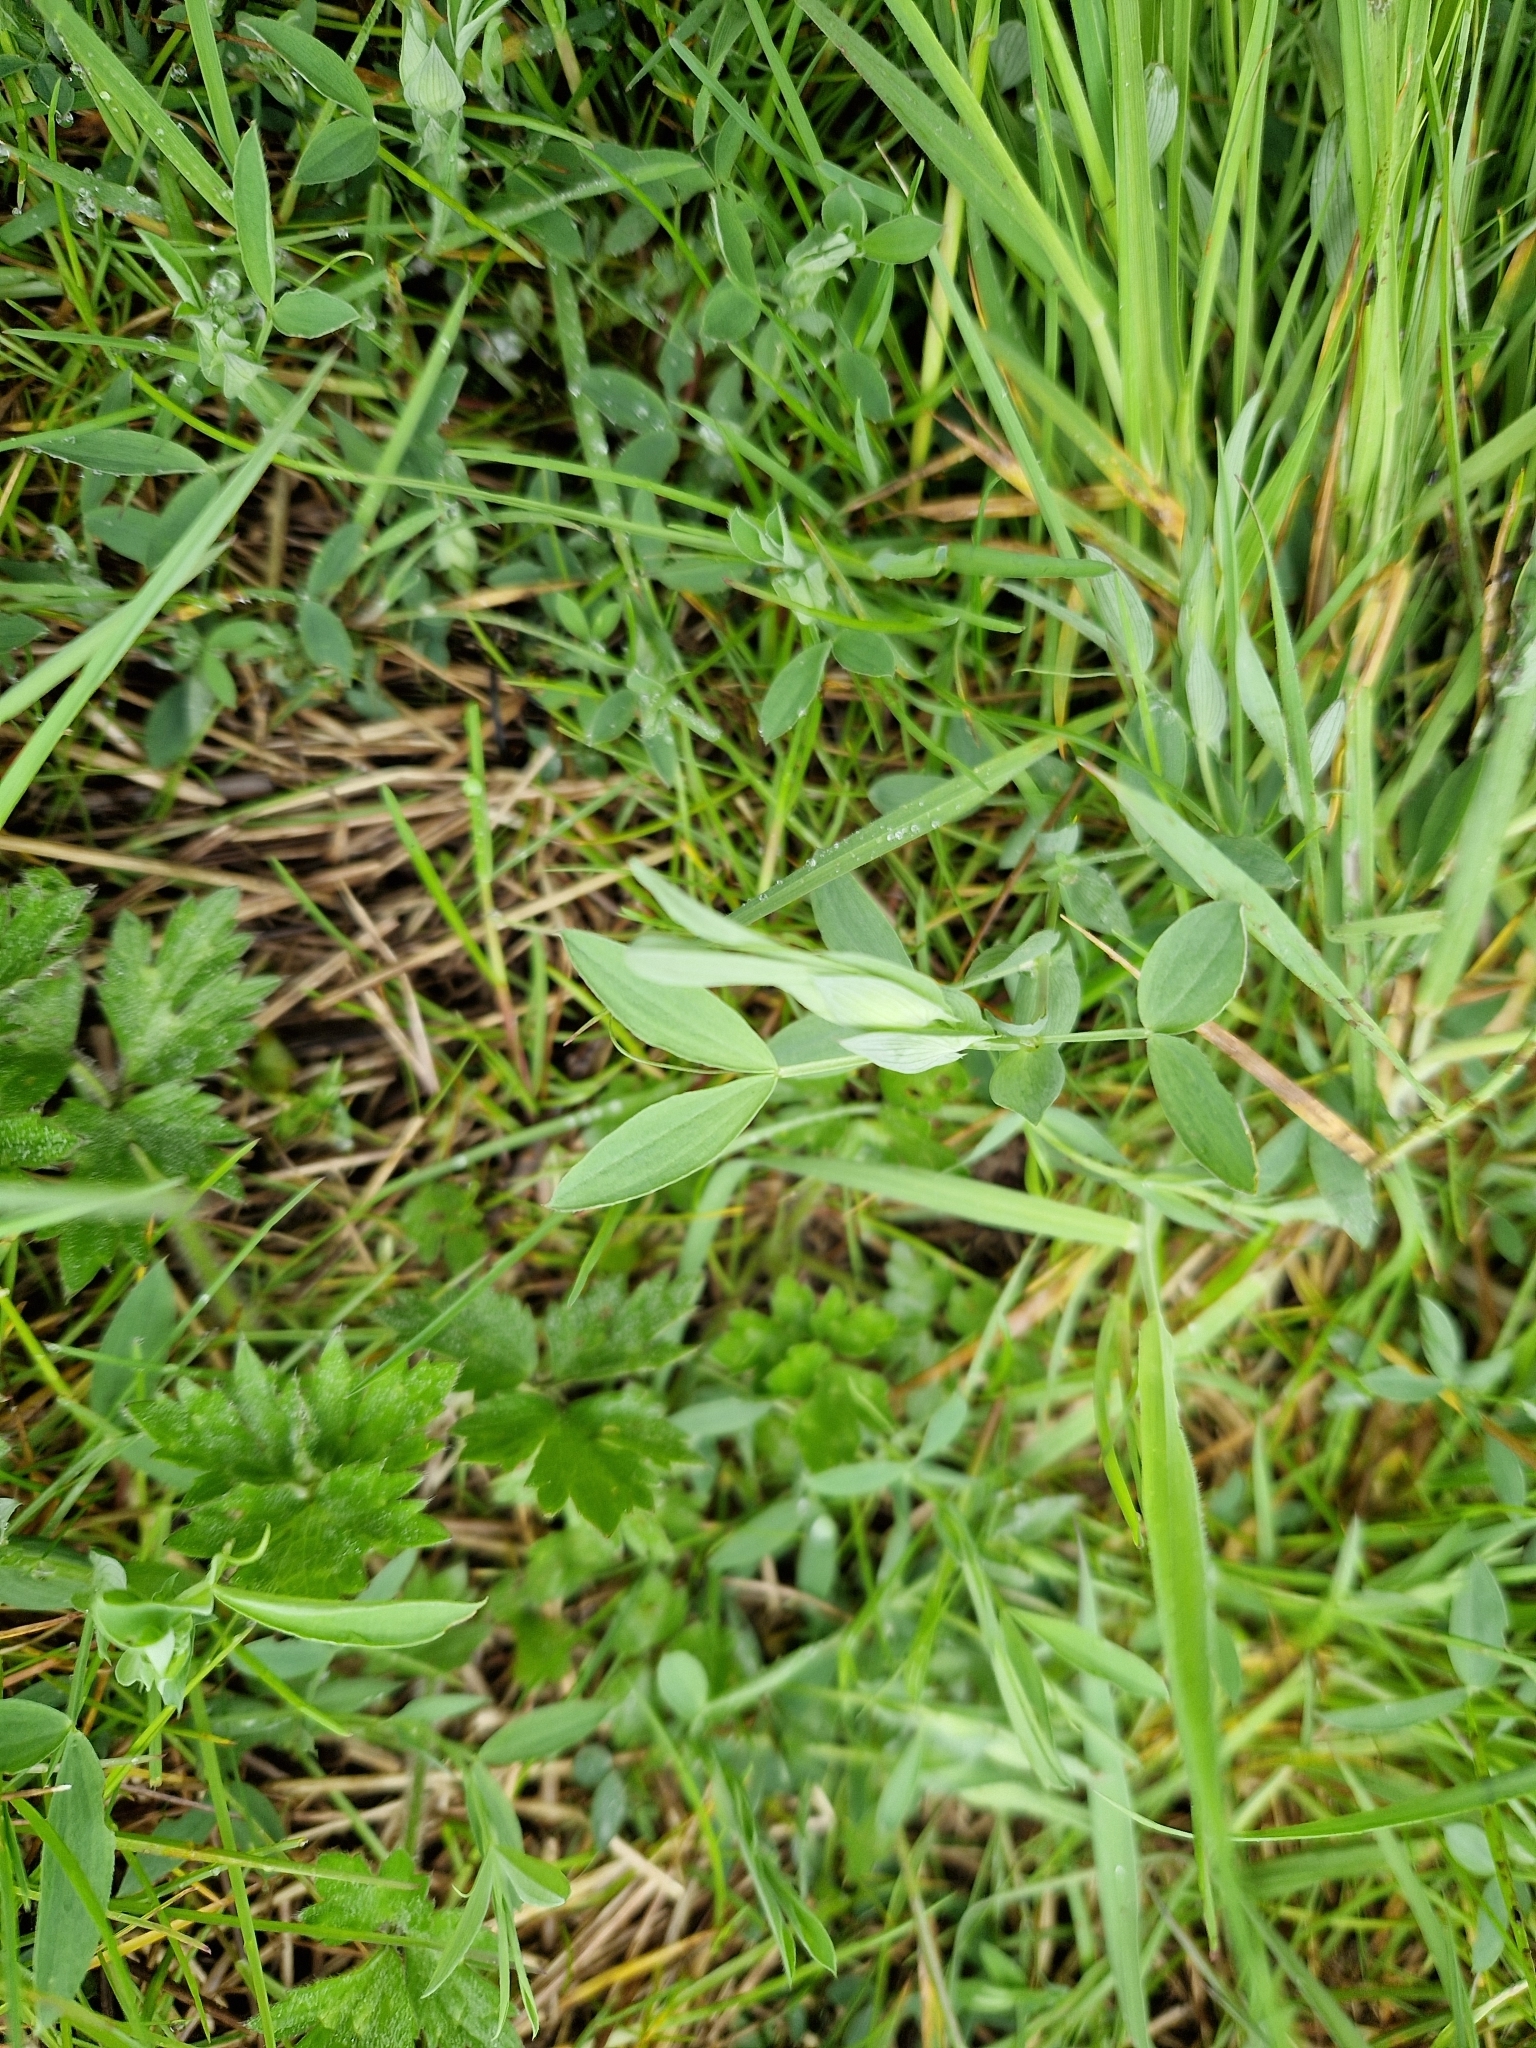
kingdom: Plantae
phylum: Tracheophyta
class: Magnoliopsida
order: Fabales
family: Fabaceae
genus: Lathyrus
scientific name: Lathyrus pratensis
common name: Meadow vetchling
